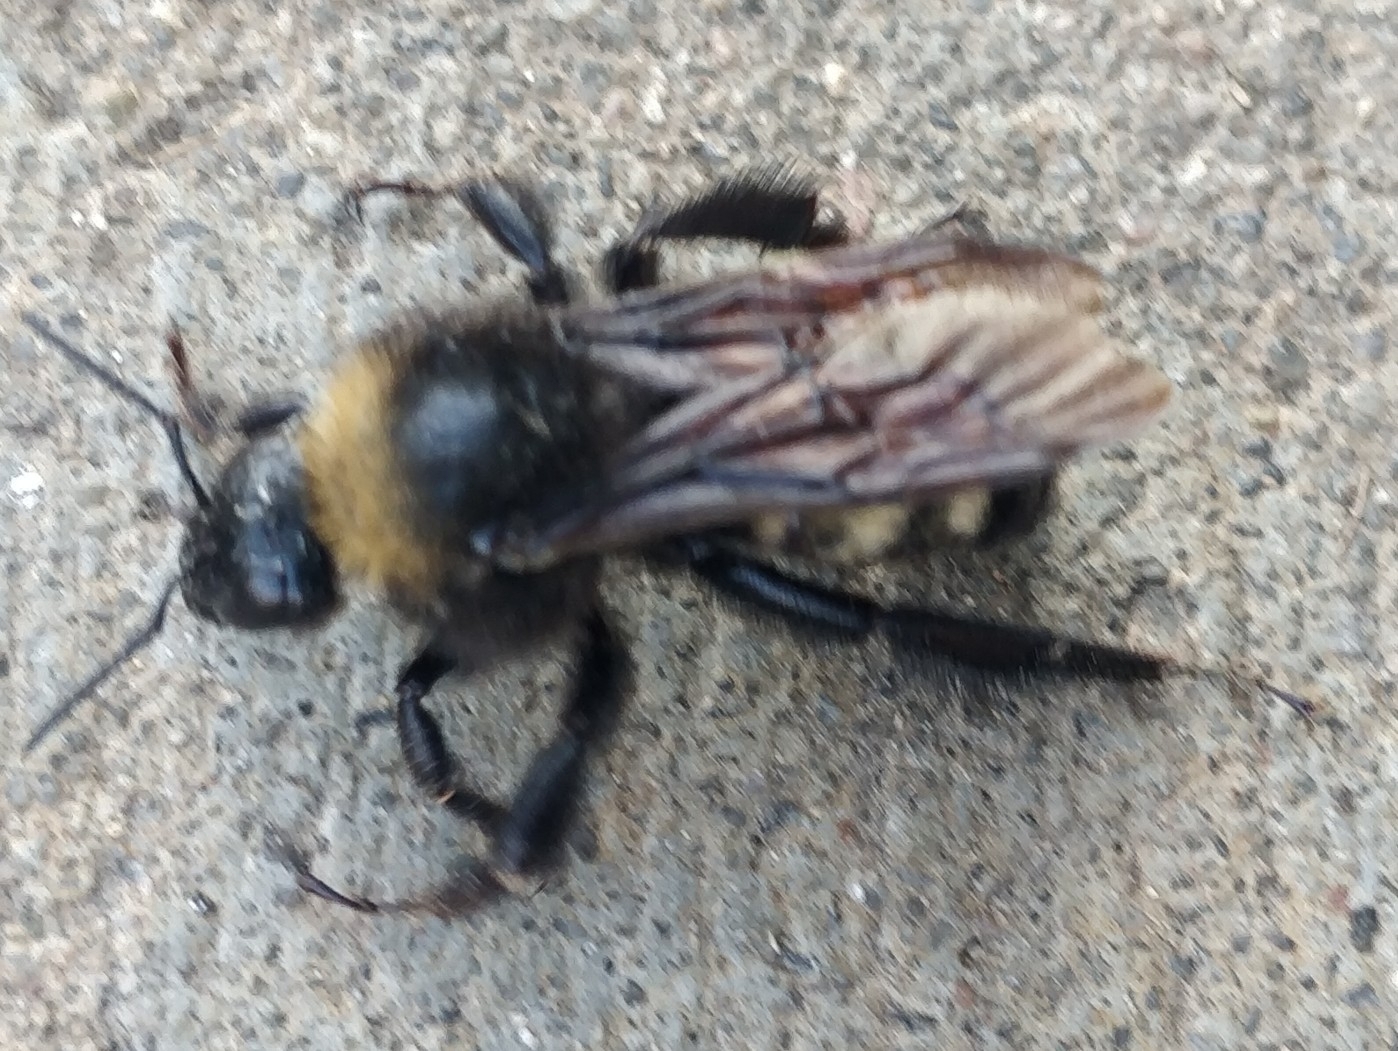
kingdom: Animalia
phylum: Arthropoda
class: Insecta
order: Hymenoptera
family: Apidae
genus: Bombus
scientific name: Bombus pensylvanicus
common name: Bumble bee
